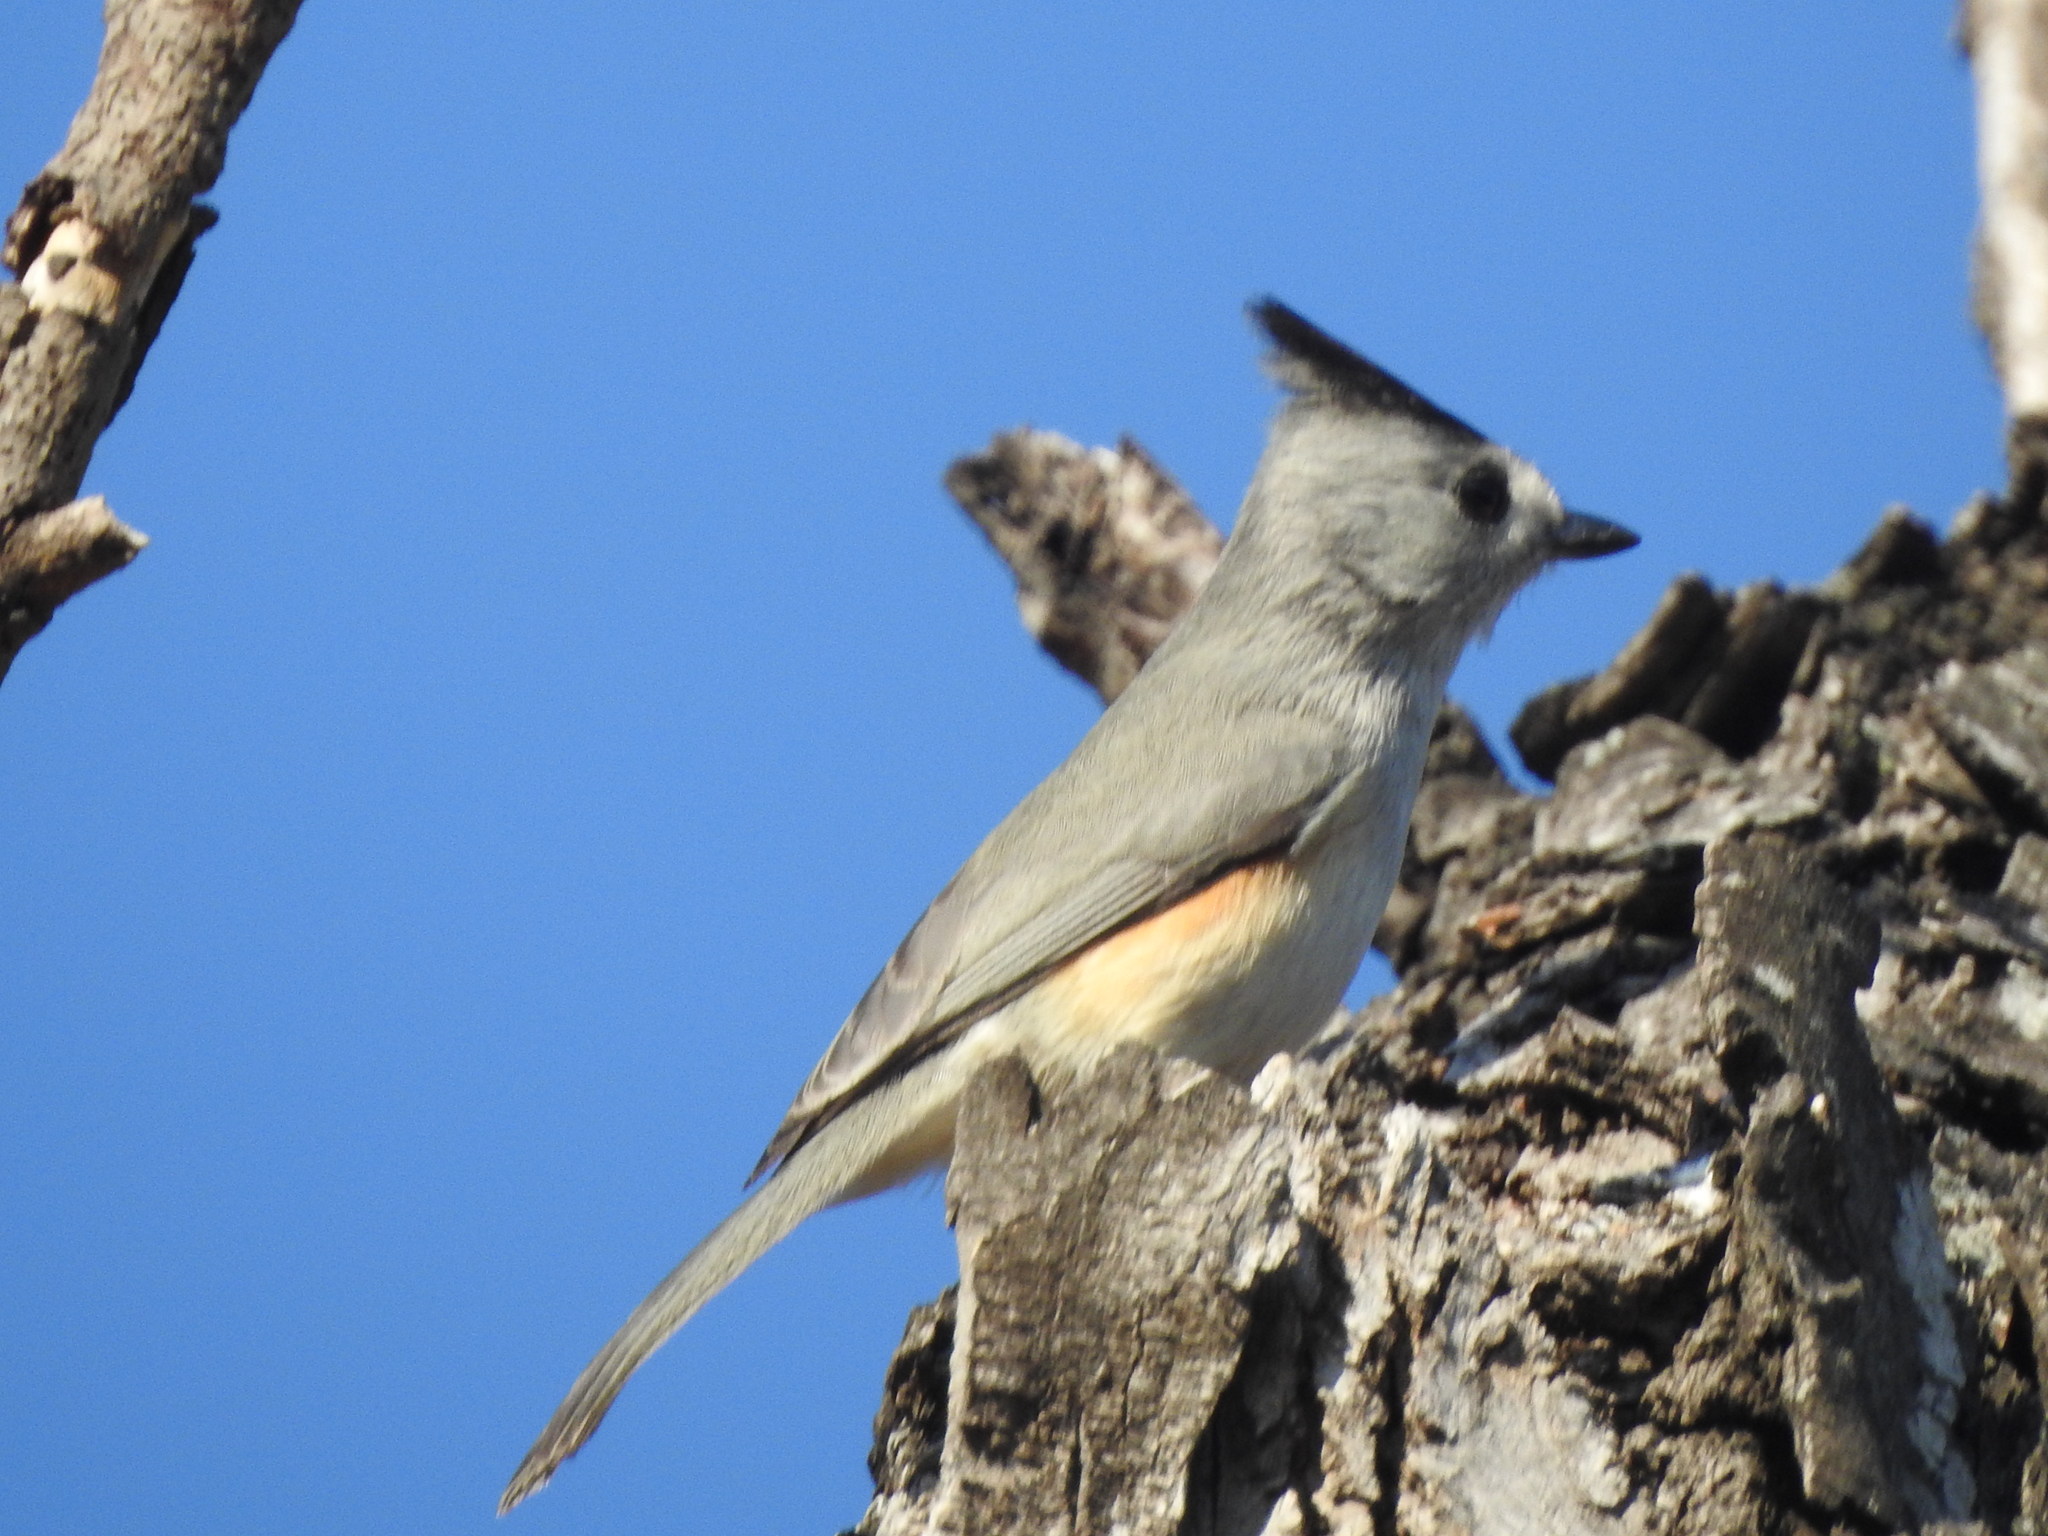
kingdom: Animalia
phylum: Chordata
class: Aves
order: Passeriformes
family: Paridae
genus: Baeolophus
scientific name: Baeolophus atricristatus
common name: Black-crested titmouse
